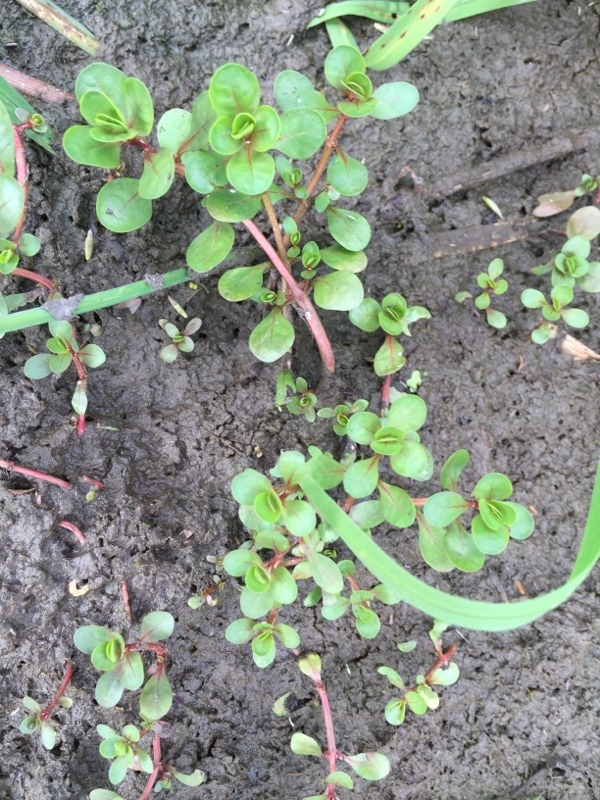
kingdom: Plantae
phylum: Tracheophyta
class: Magnoliopsida
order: Myrtales
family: Lythraceae
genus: Lythrum
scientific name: Lythrum portula
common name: Water purslane
